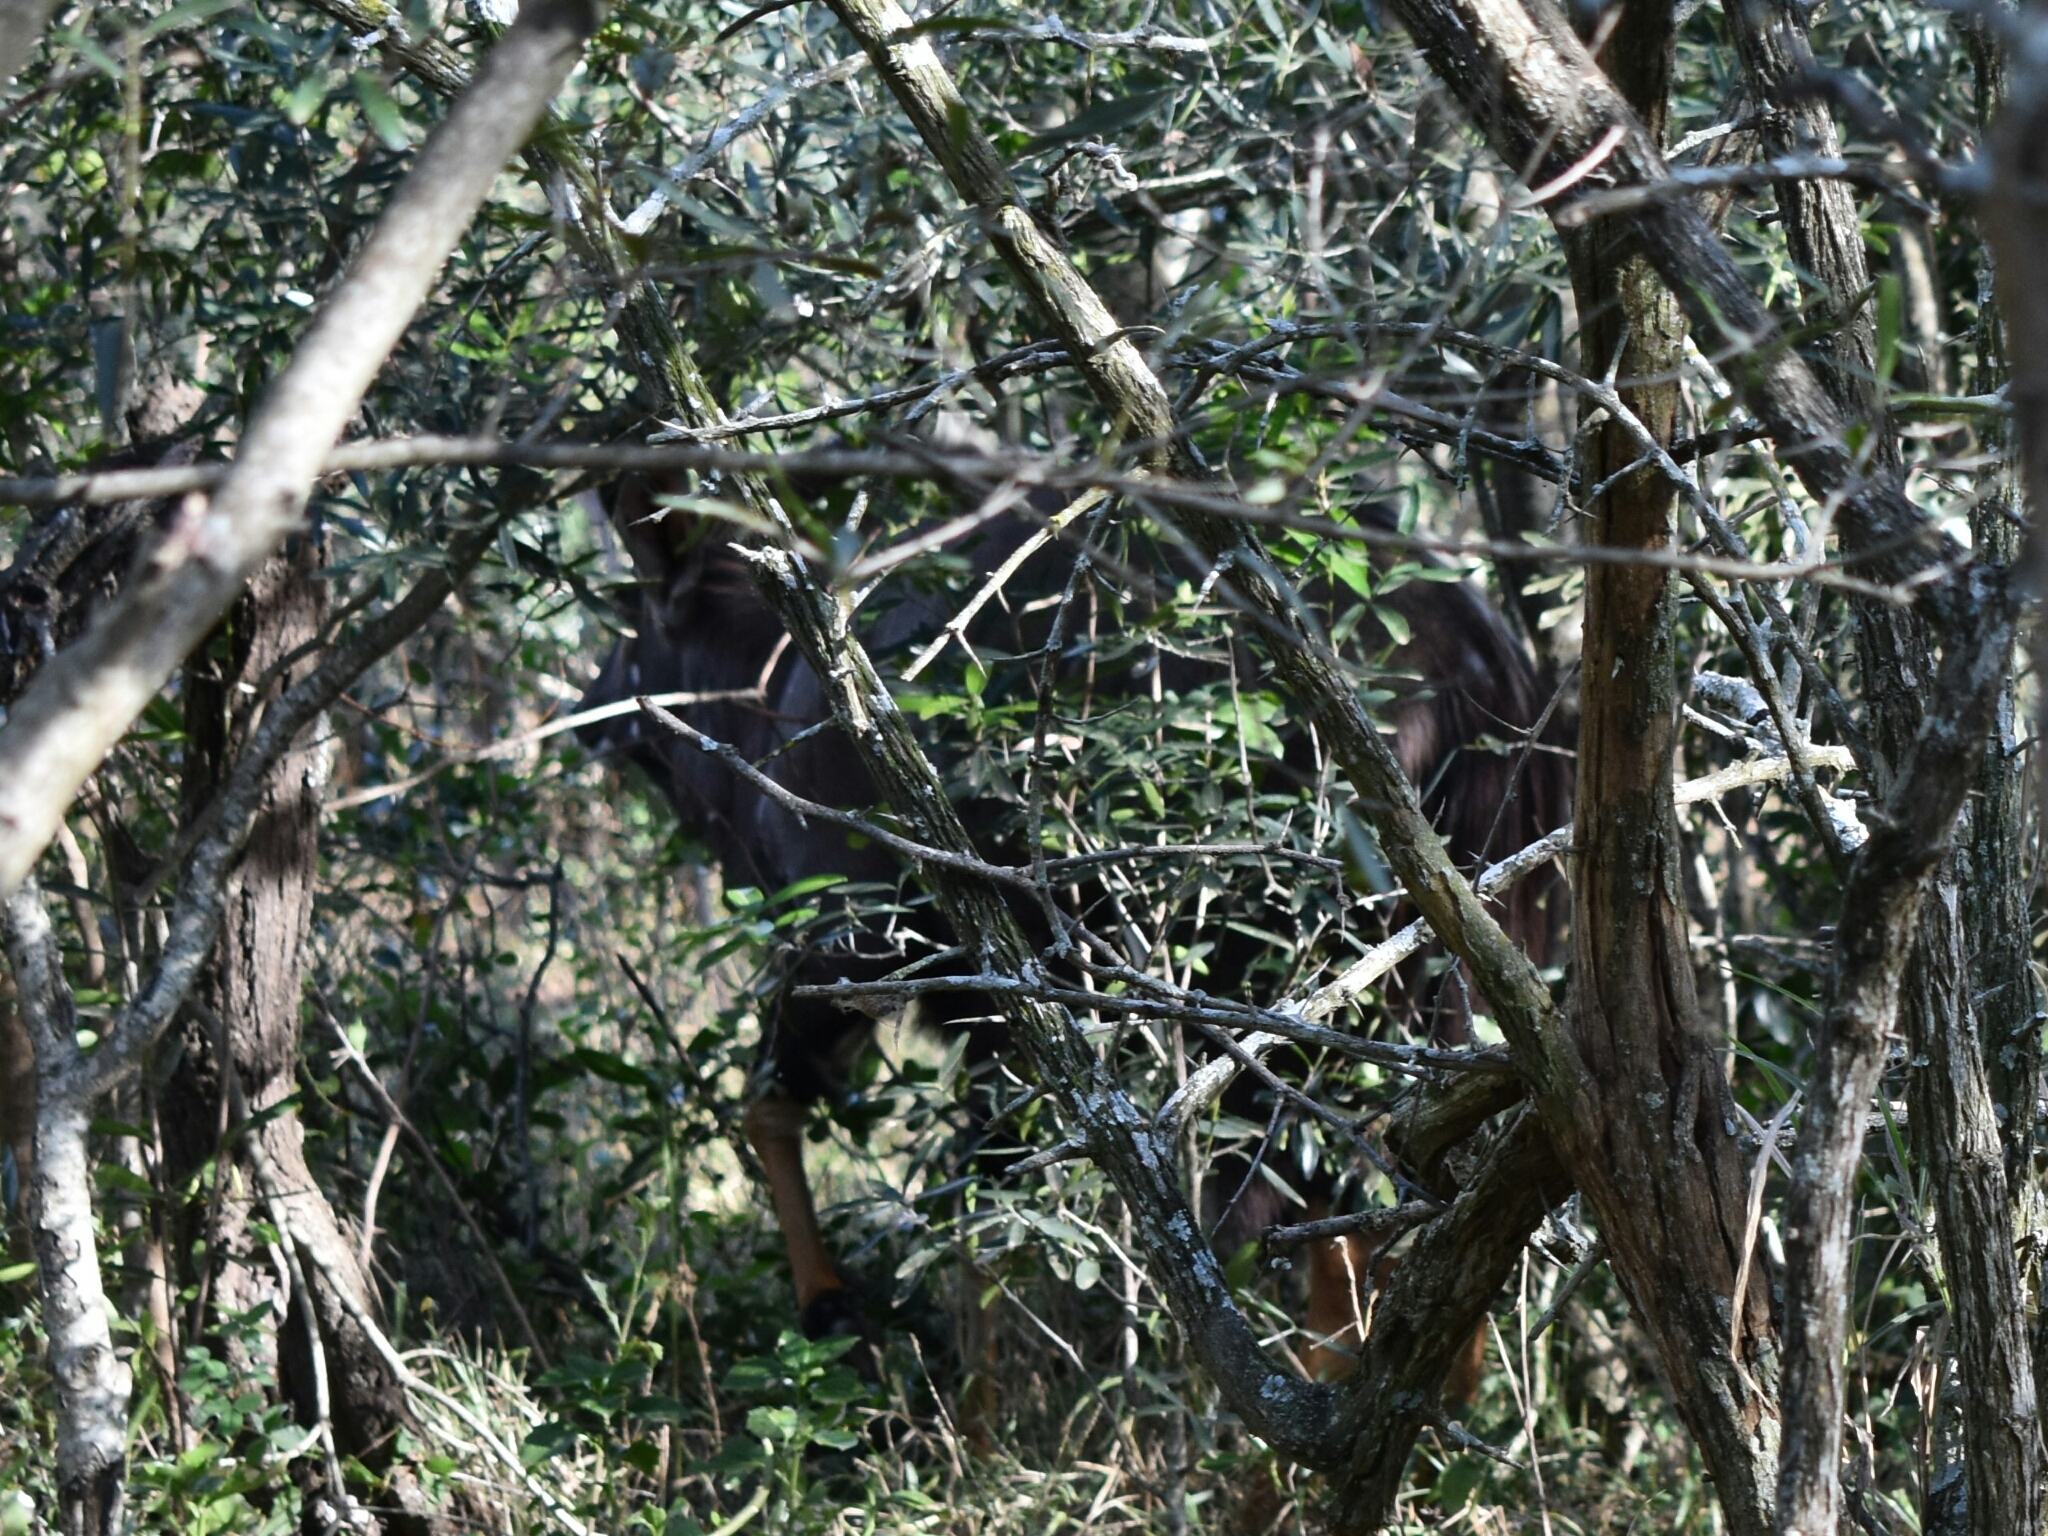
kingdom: Animalia
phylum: Chordata
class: Mammalia
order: Artiodactyla
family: Bovidae
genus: Tragelaphus
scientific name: Tragelaphus angasii
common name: Nyala
